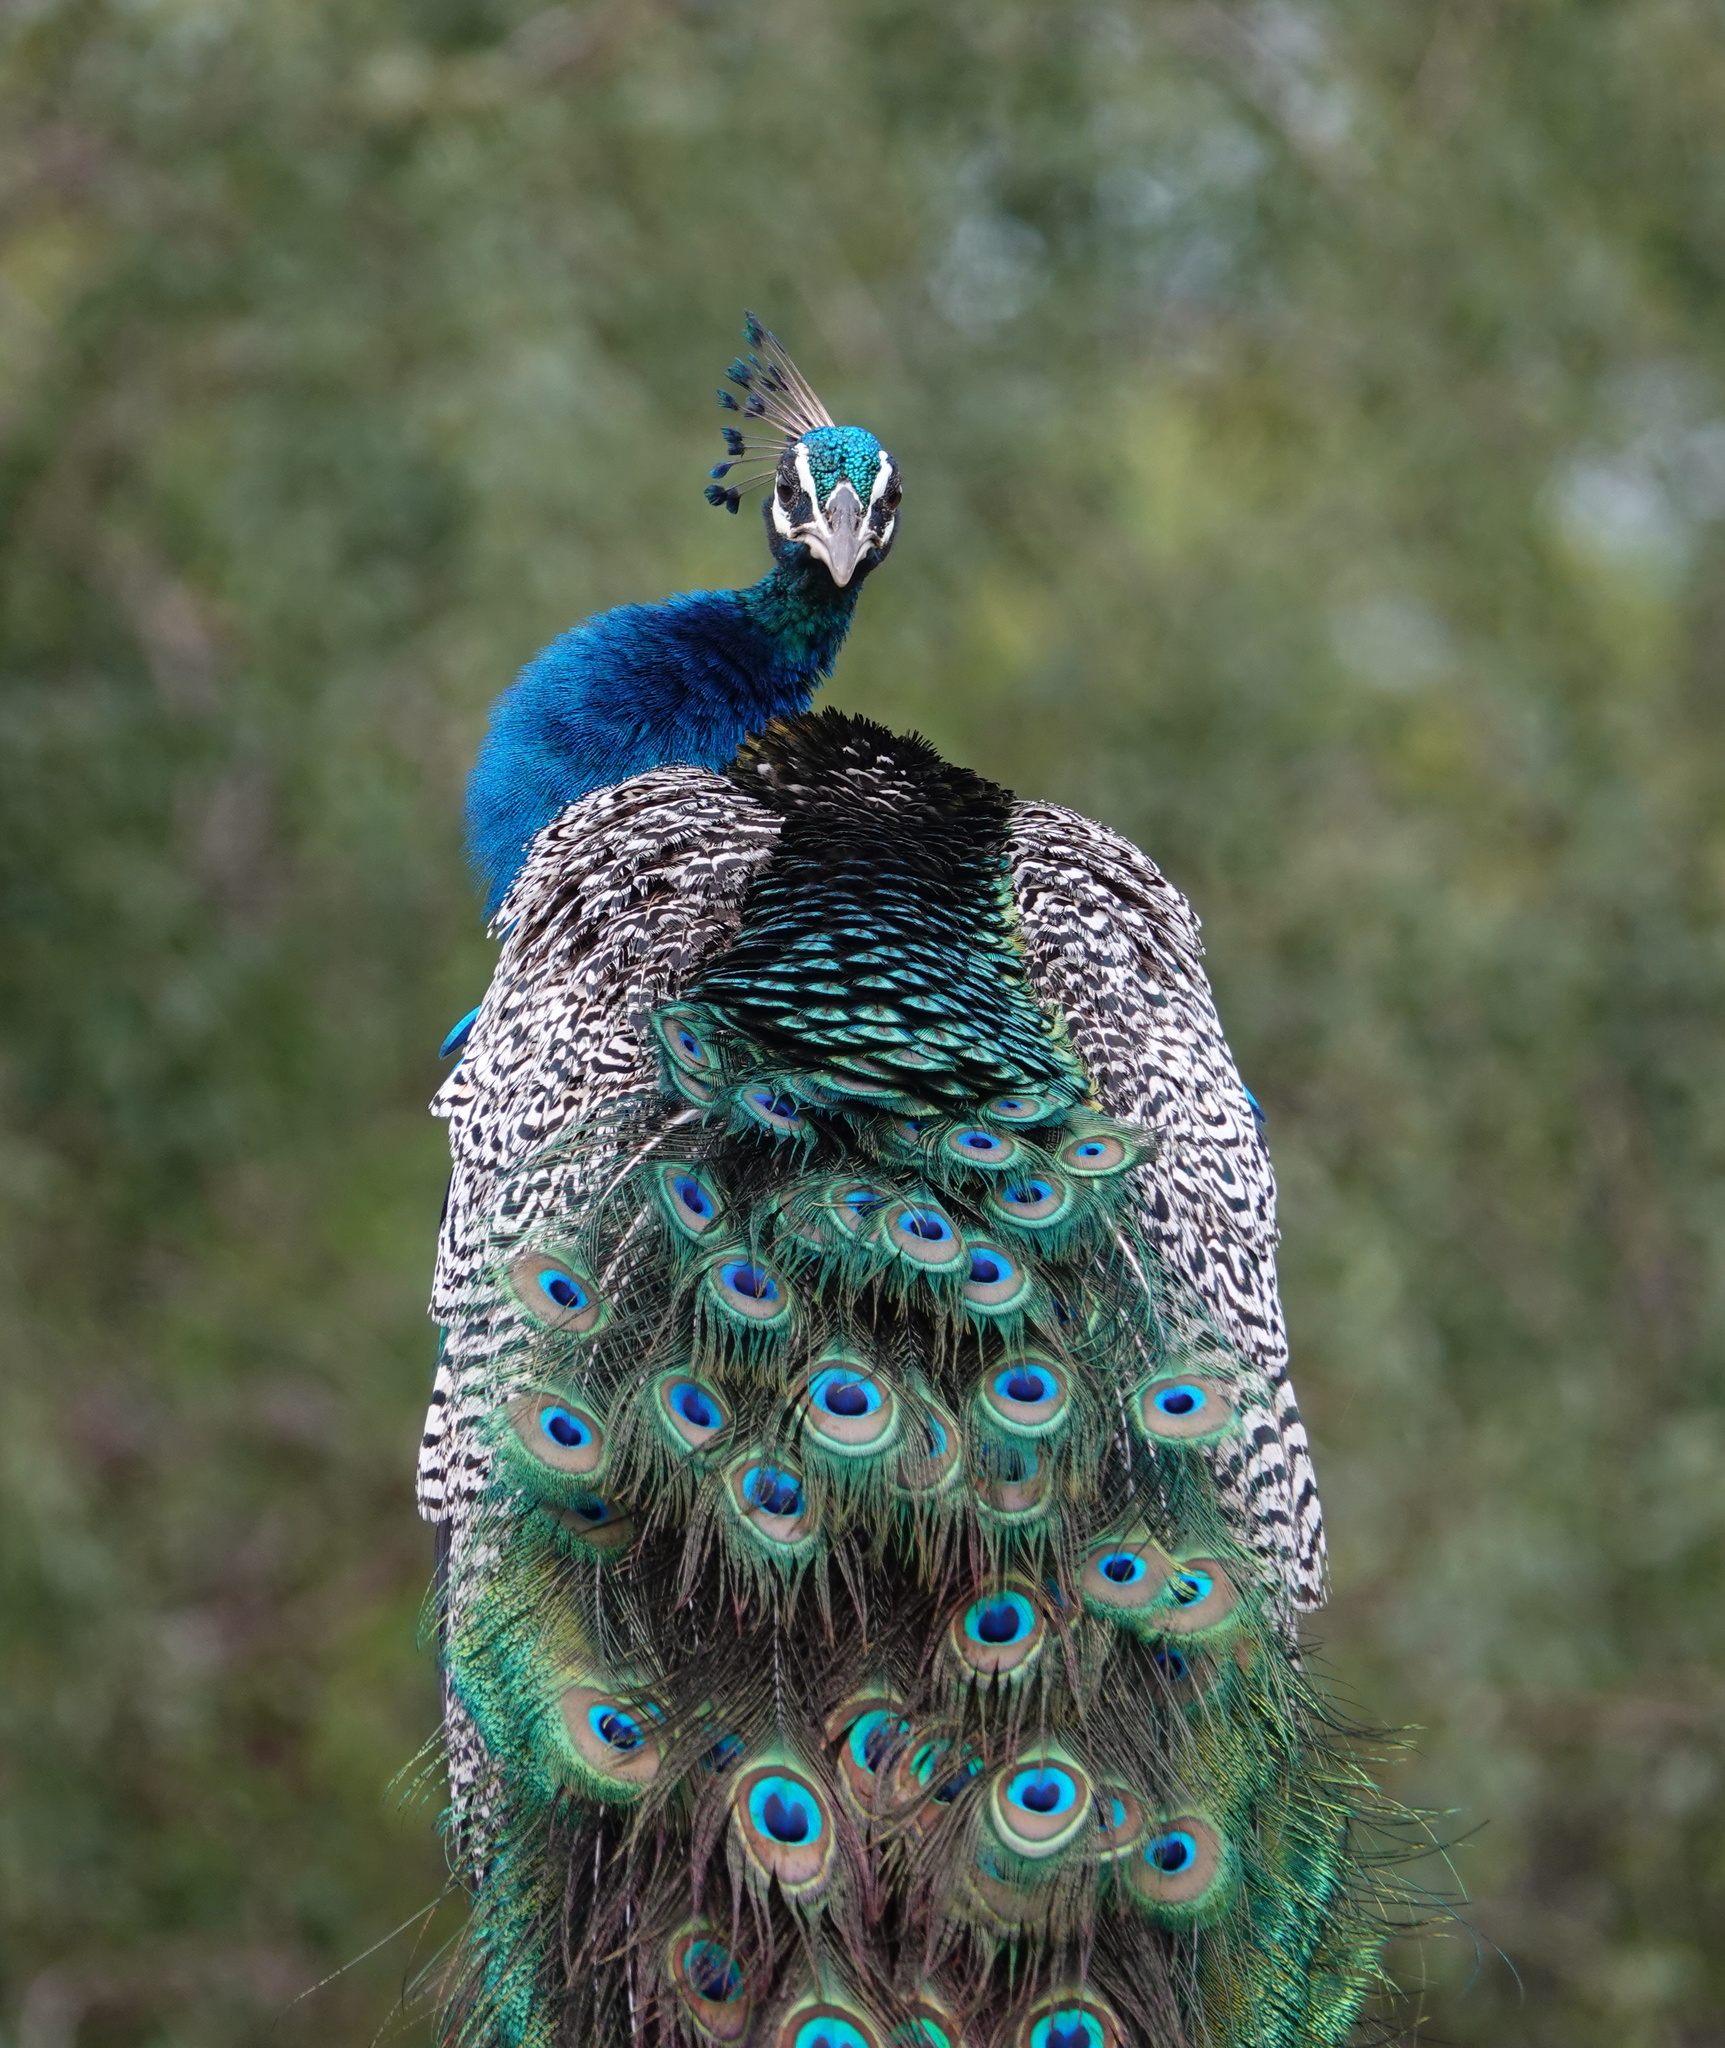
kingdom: Animalia
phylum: Chordata
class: Aves
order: Galliformes
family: Phasianidae
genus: Pavo
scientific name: Pavo cristatus
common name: Indian peafowl
